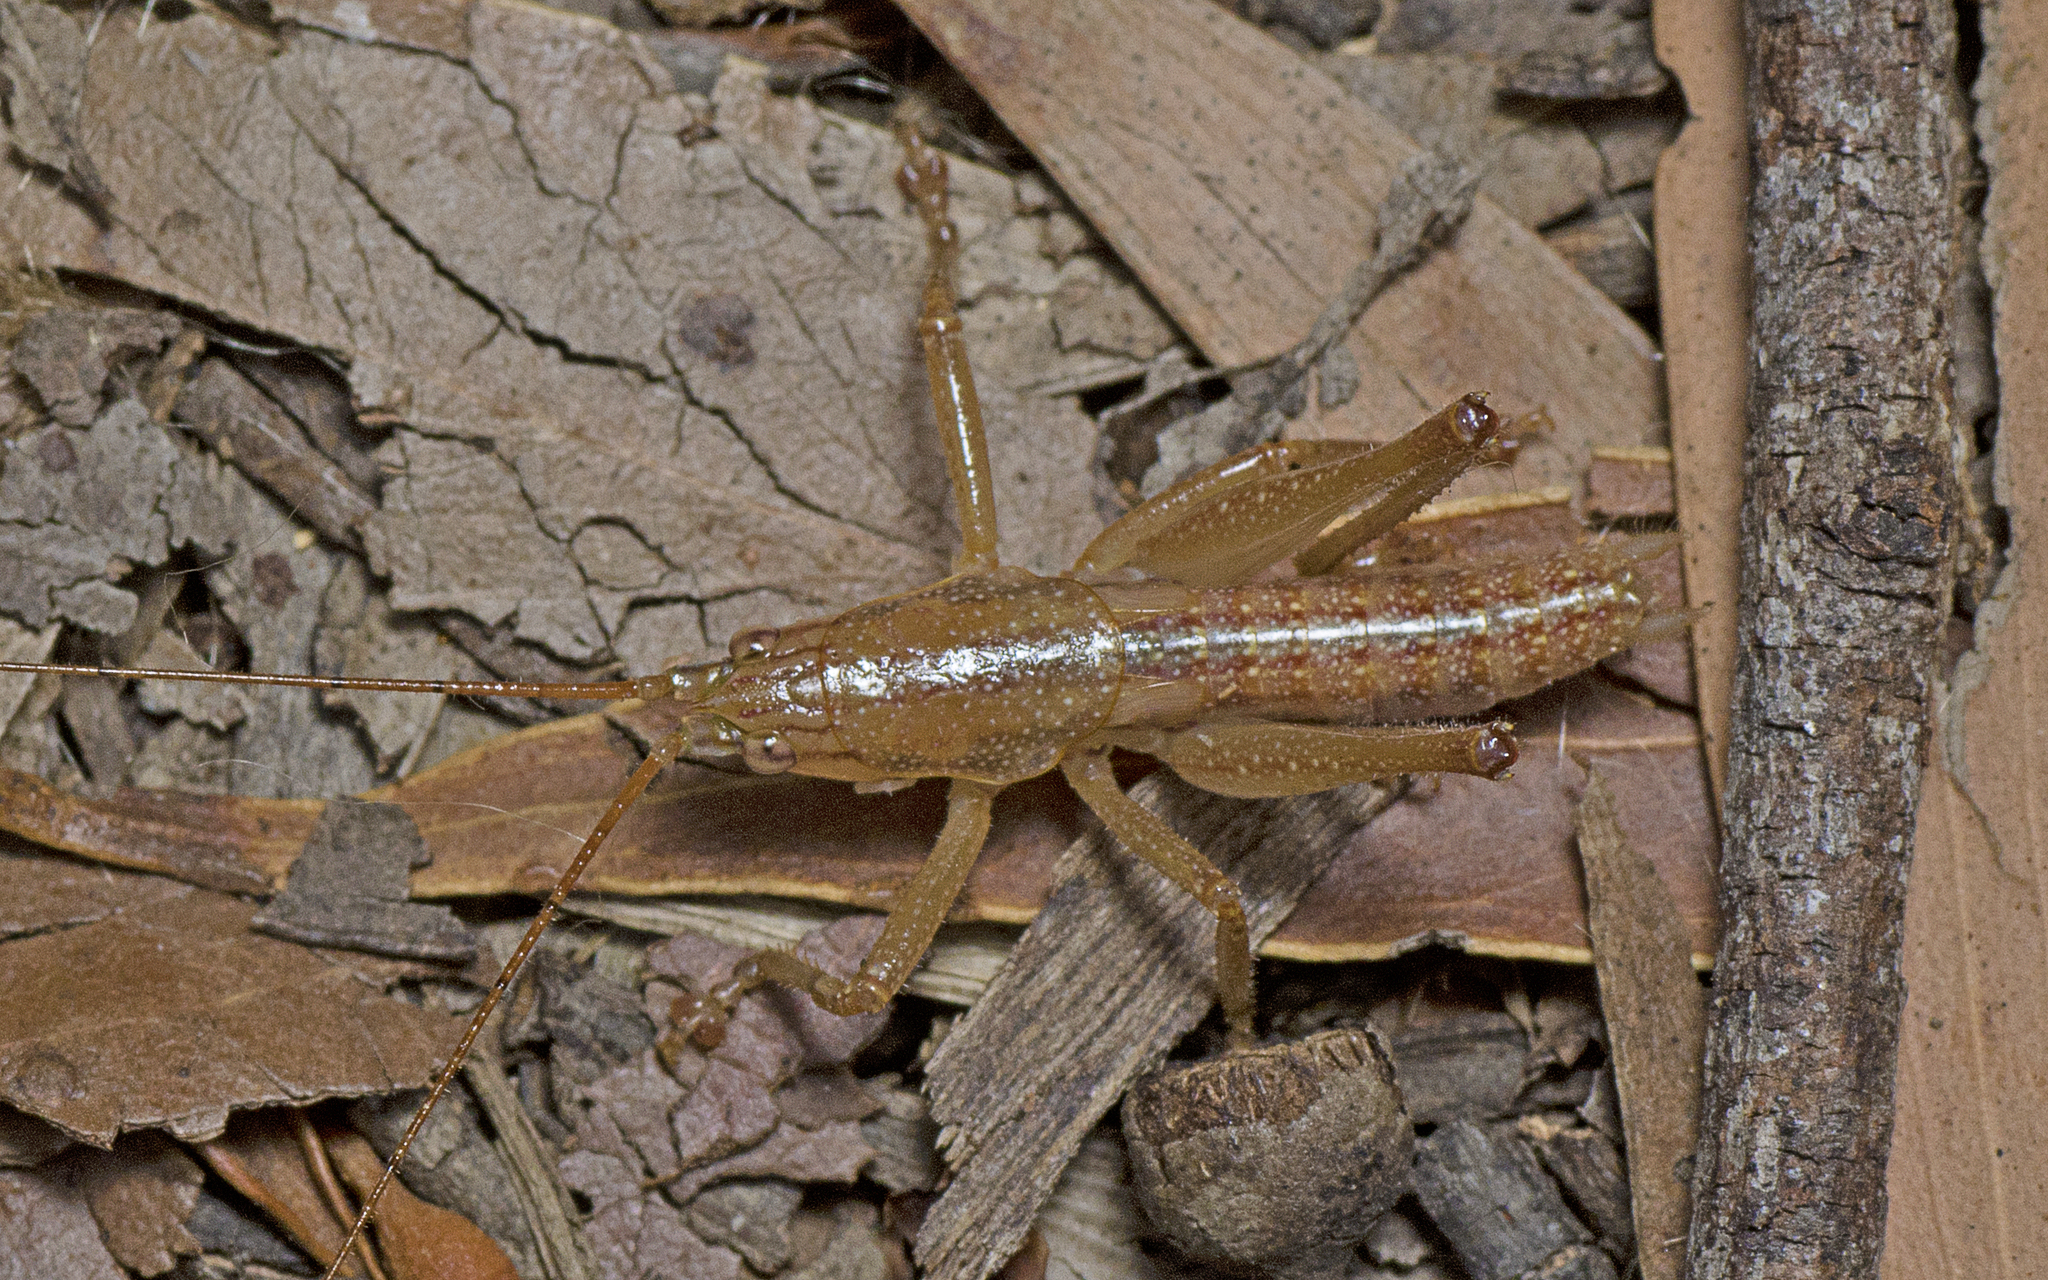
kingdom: Animalia
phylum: Arthropoda
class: Insecta
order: Orthoptera
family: Tettigoniidae
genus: Austrosalomona
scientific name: Austrosalomona falcata
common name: Olive-green coastal katydid
